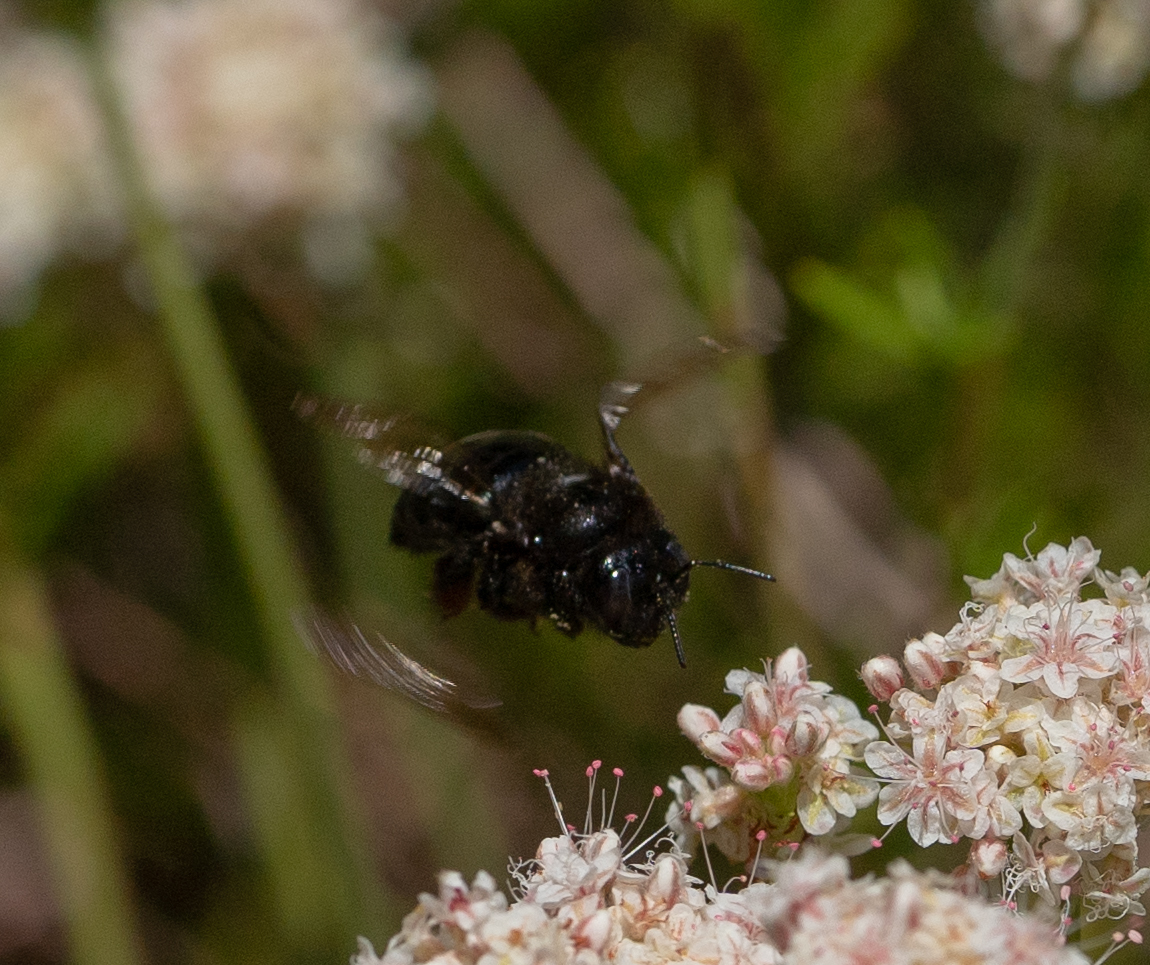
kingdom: Animalia
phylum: Arthropoda
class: Insecta
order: Hymenoptera
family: Apidae
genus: Xylocopa
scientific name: Xylocopa tabaniformis
